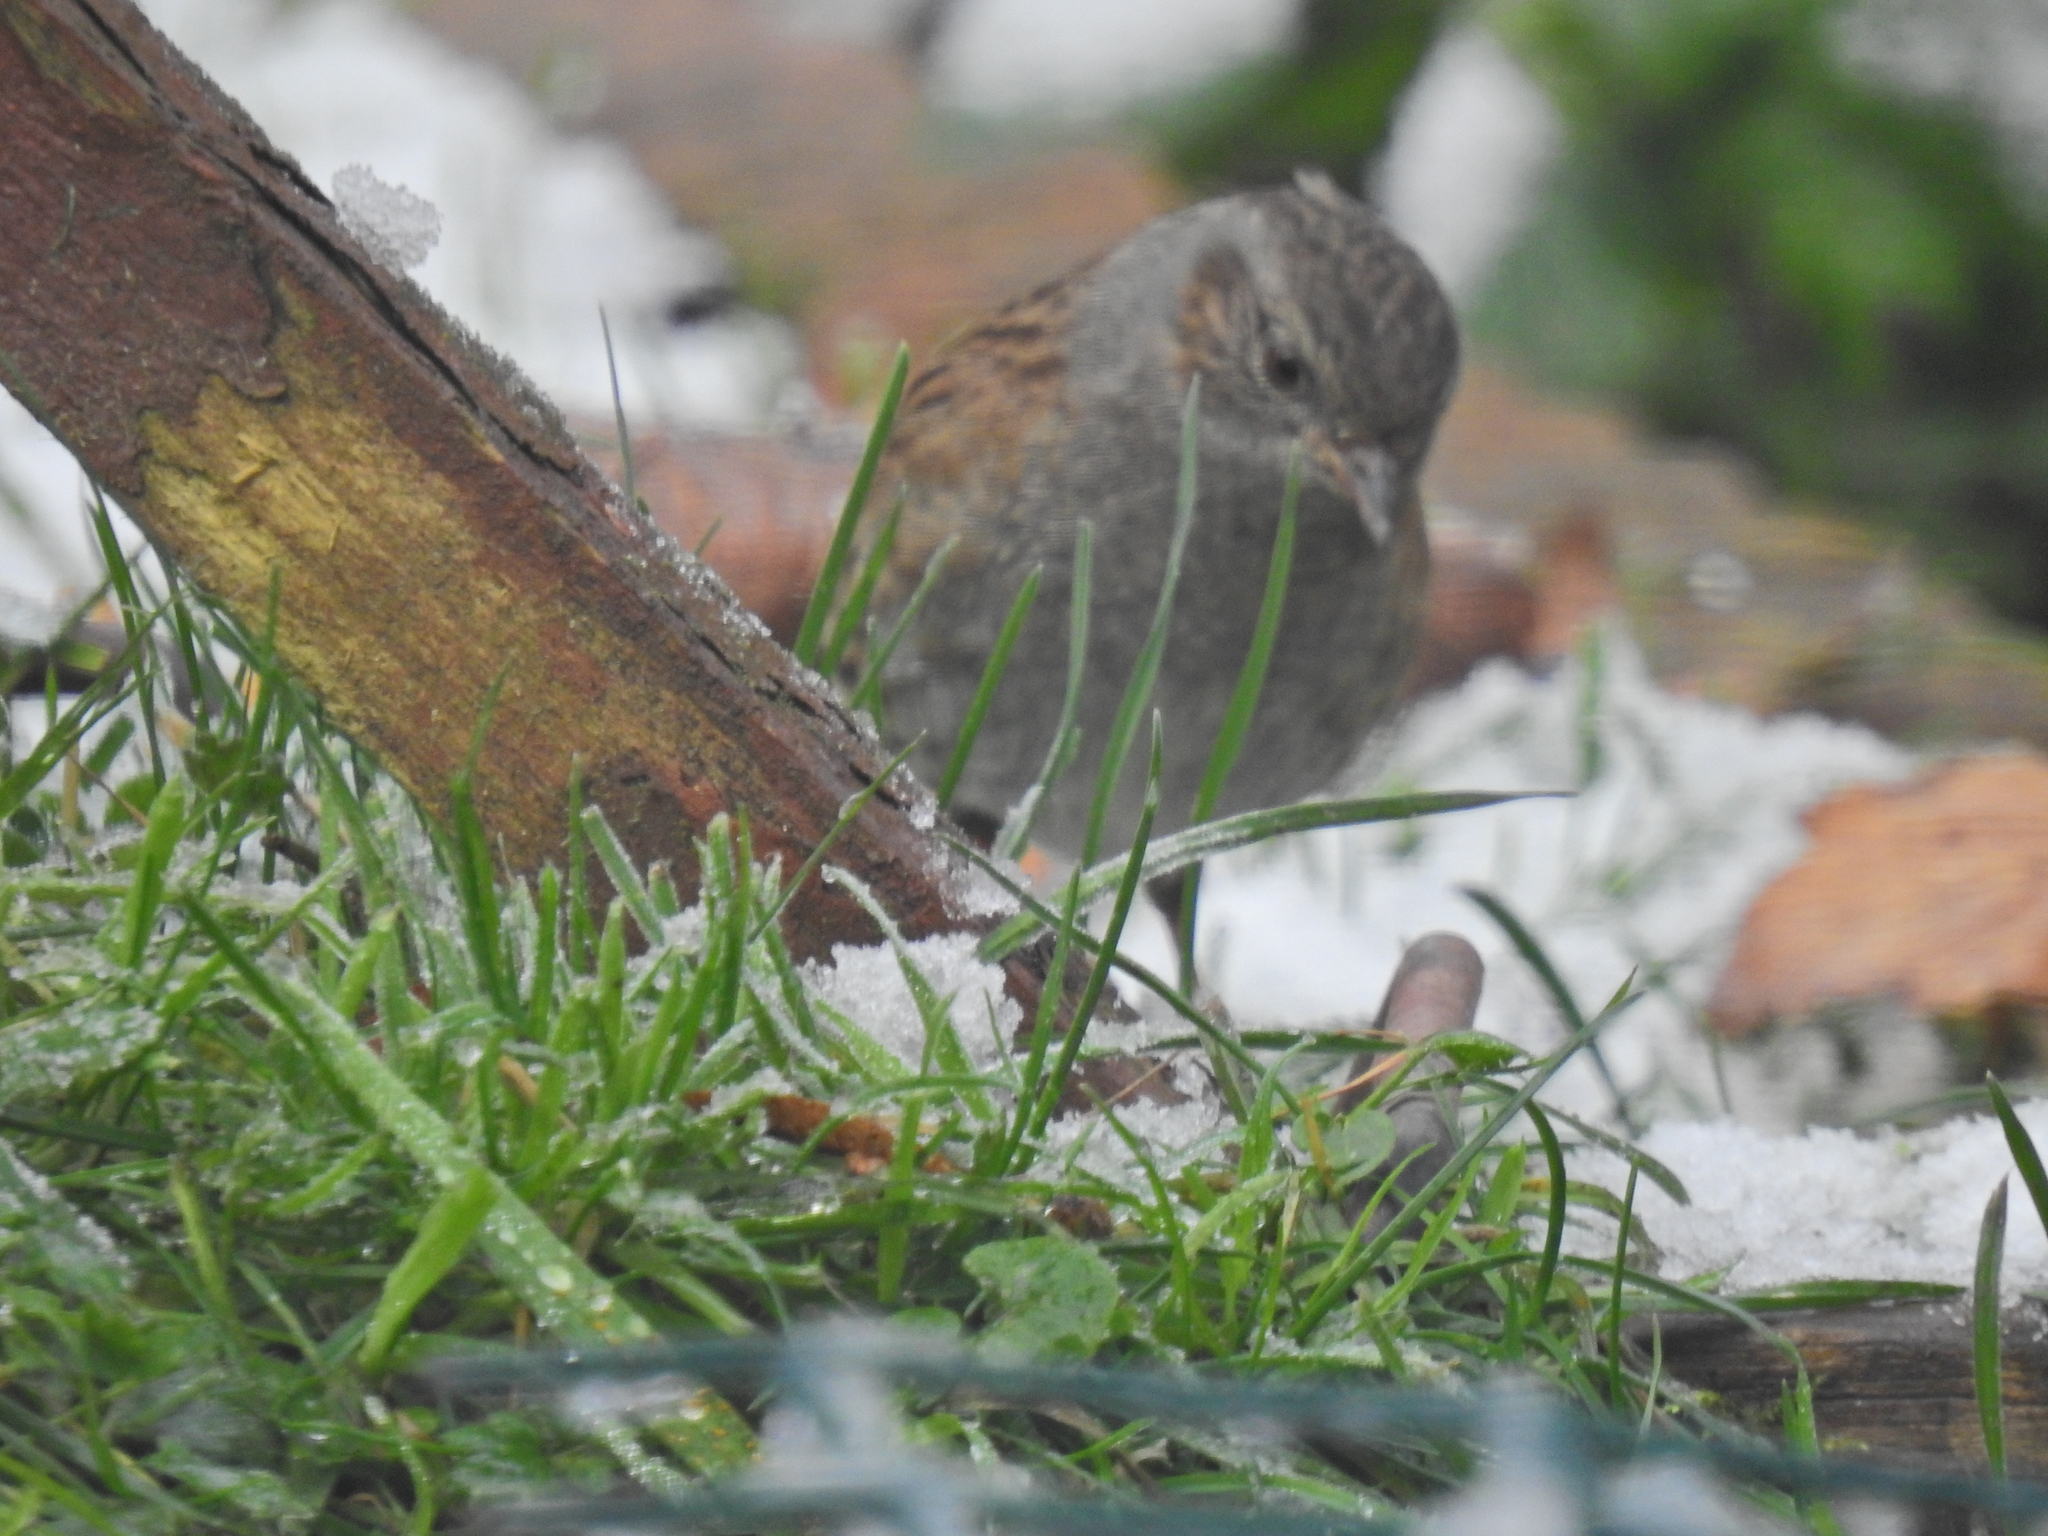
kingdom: Animalia
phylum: Chordata
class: Aves
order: Passeriformes
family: Prunellidae
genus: Prunella
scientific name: Prunella modularis
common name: Dunnock
